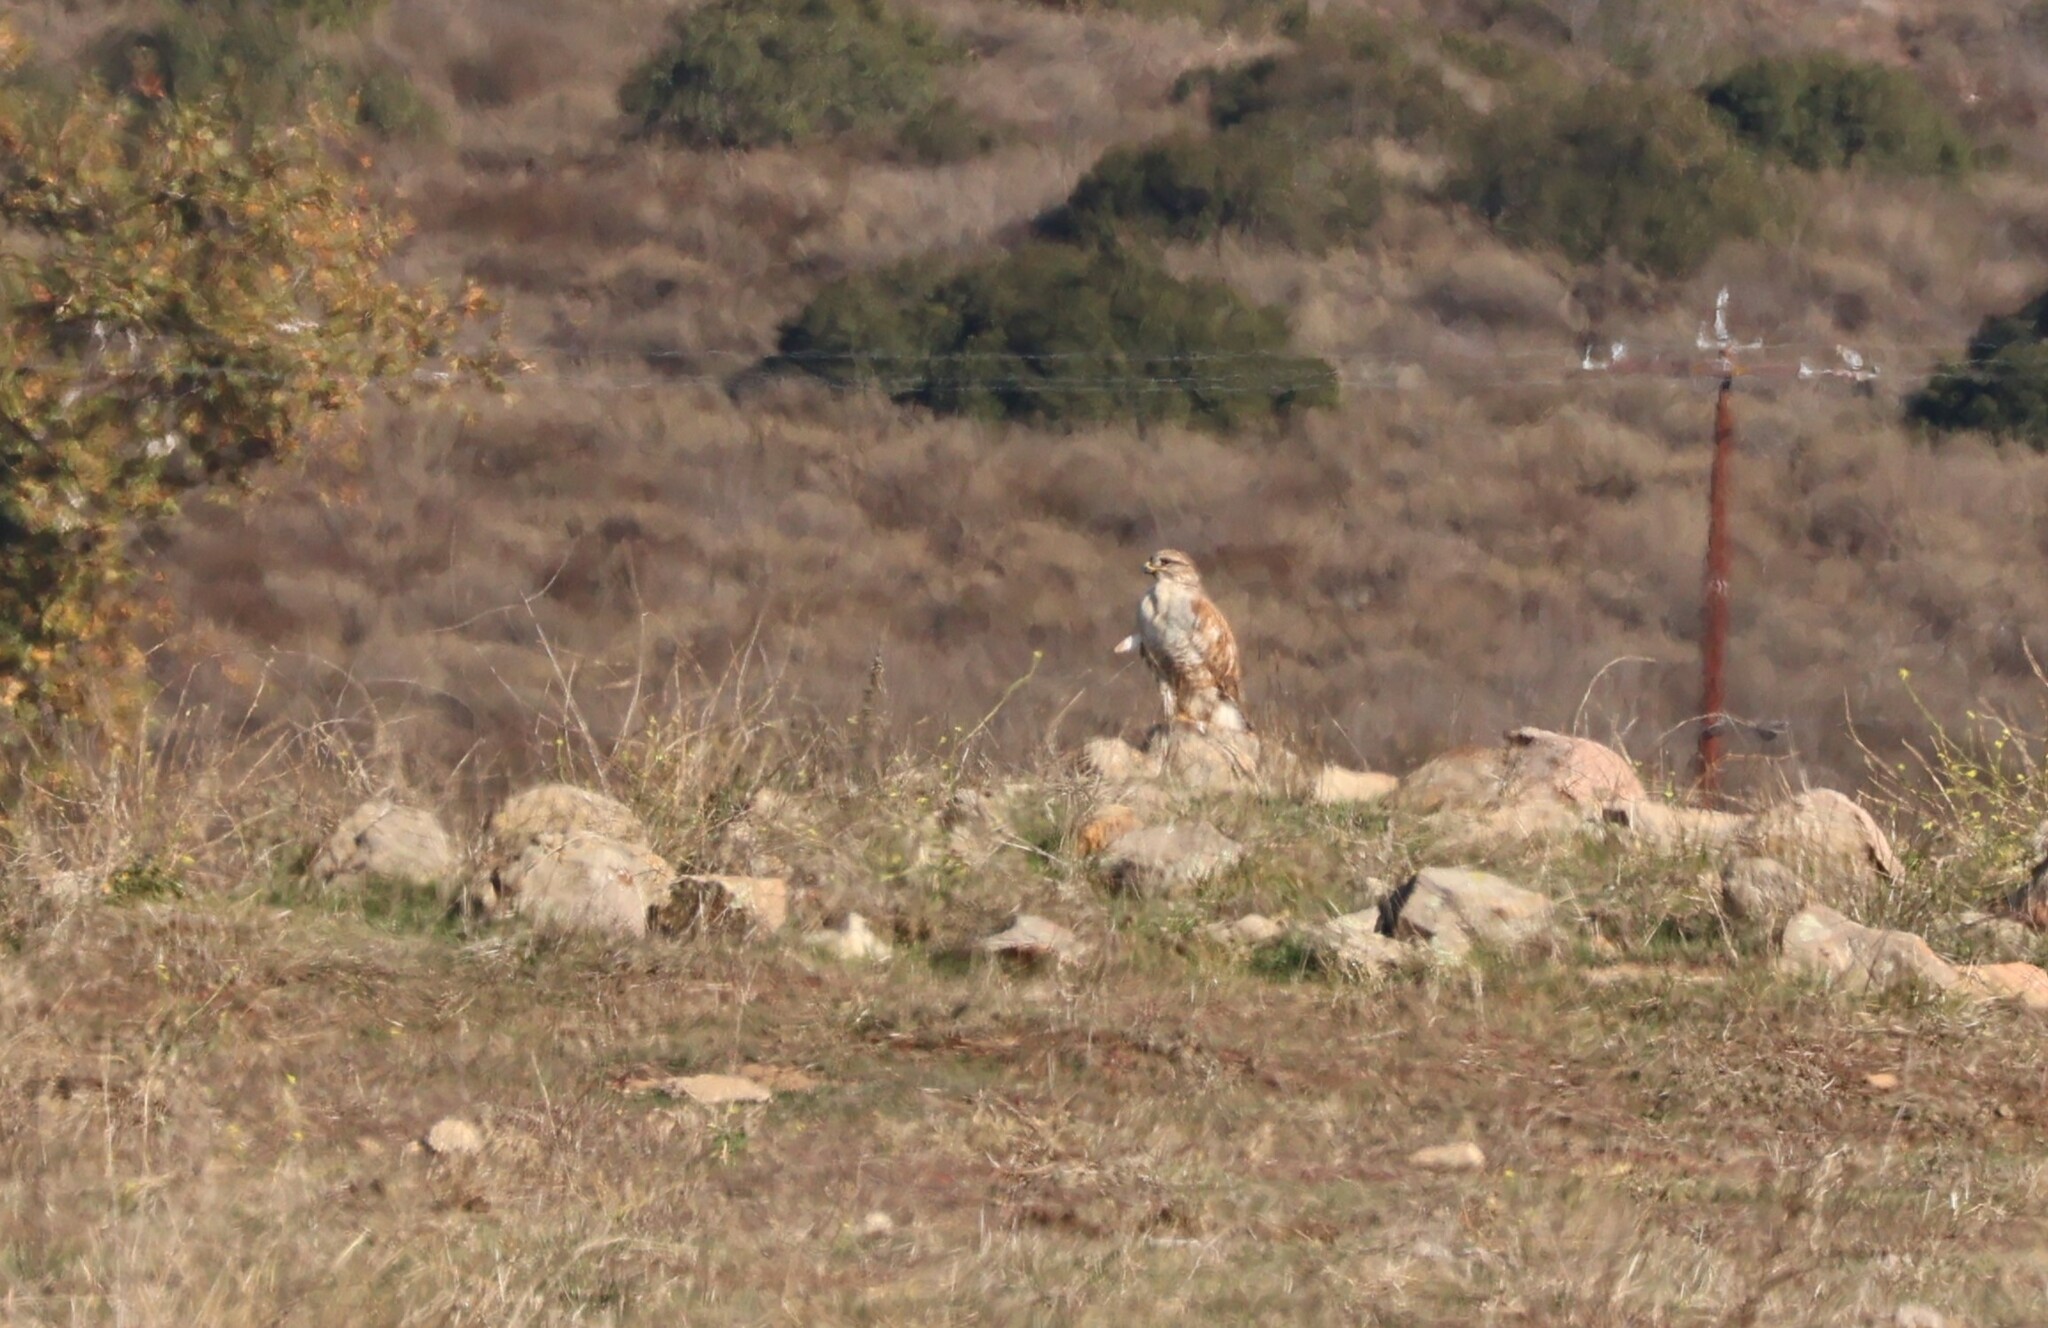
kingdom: Animalia
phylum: Chordata
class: Aves
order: Accipitriformes
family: Accipitridae
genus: Buteo
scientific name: Buteo regalis
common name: Ferruginous hawk
